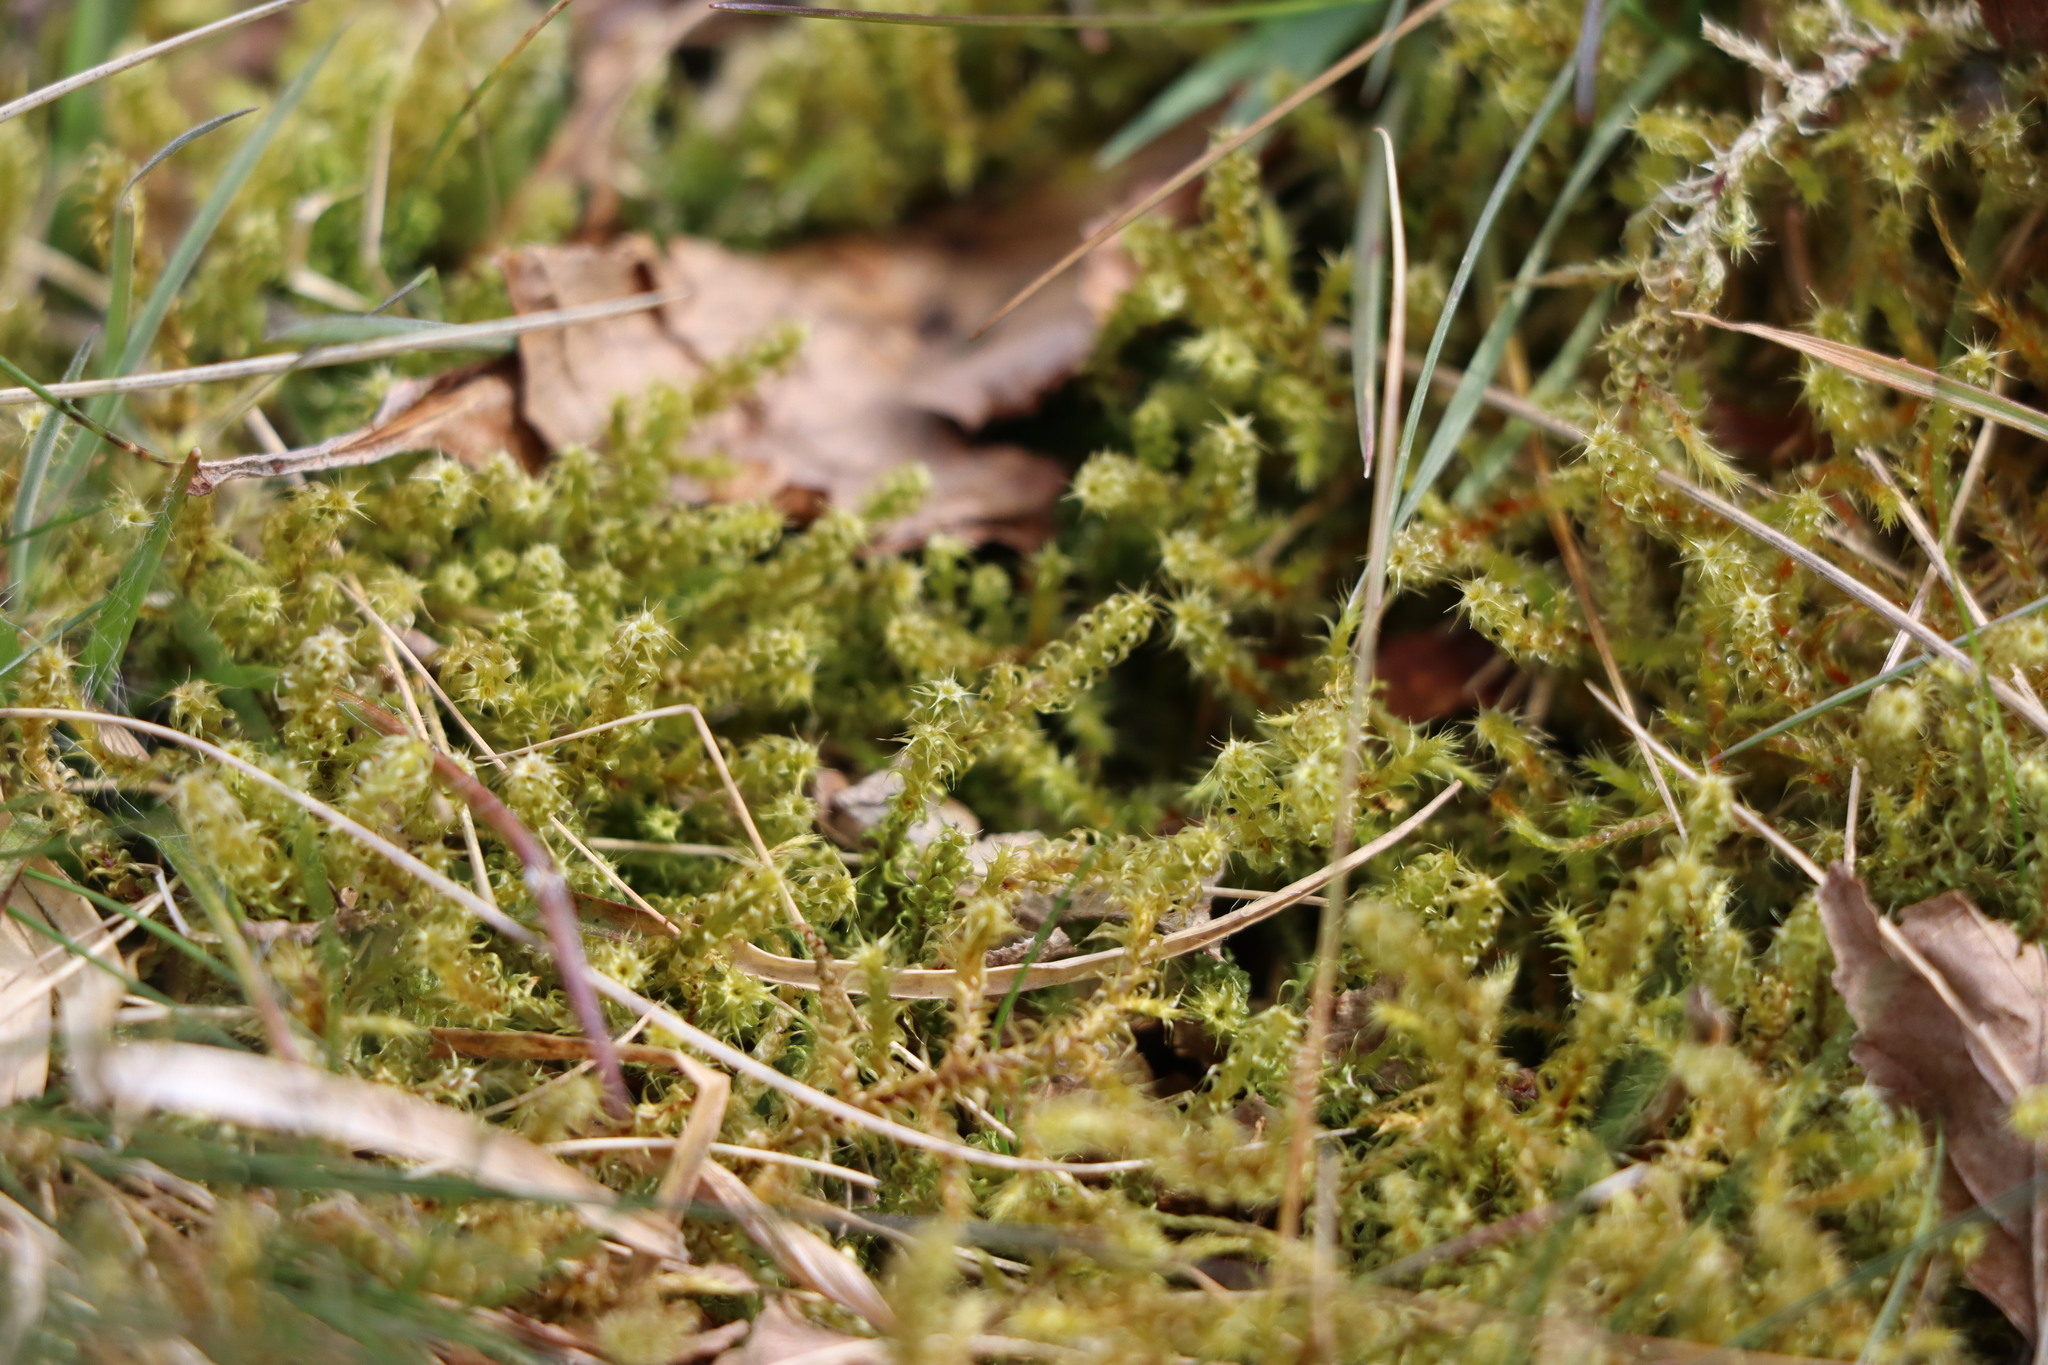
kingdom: Plantae
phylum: Bryophyta
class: Bryopsida
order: Hypnales
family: Hylocomiaceae
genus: Rhytidiadelphus
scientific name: Rhytidiadelphus squarrosus
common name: Springy turf-moss
